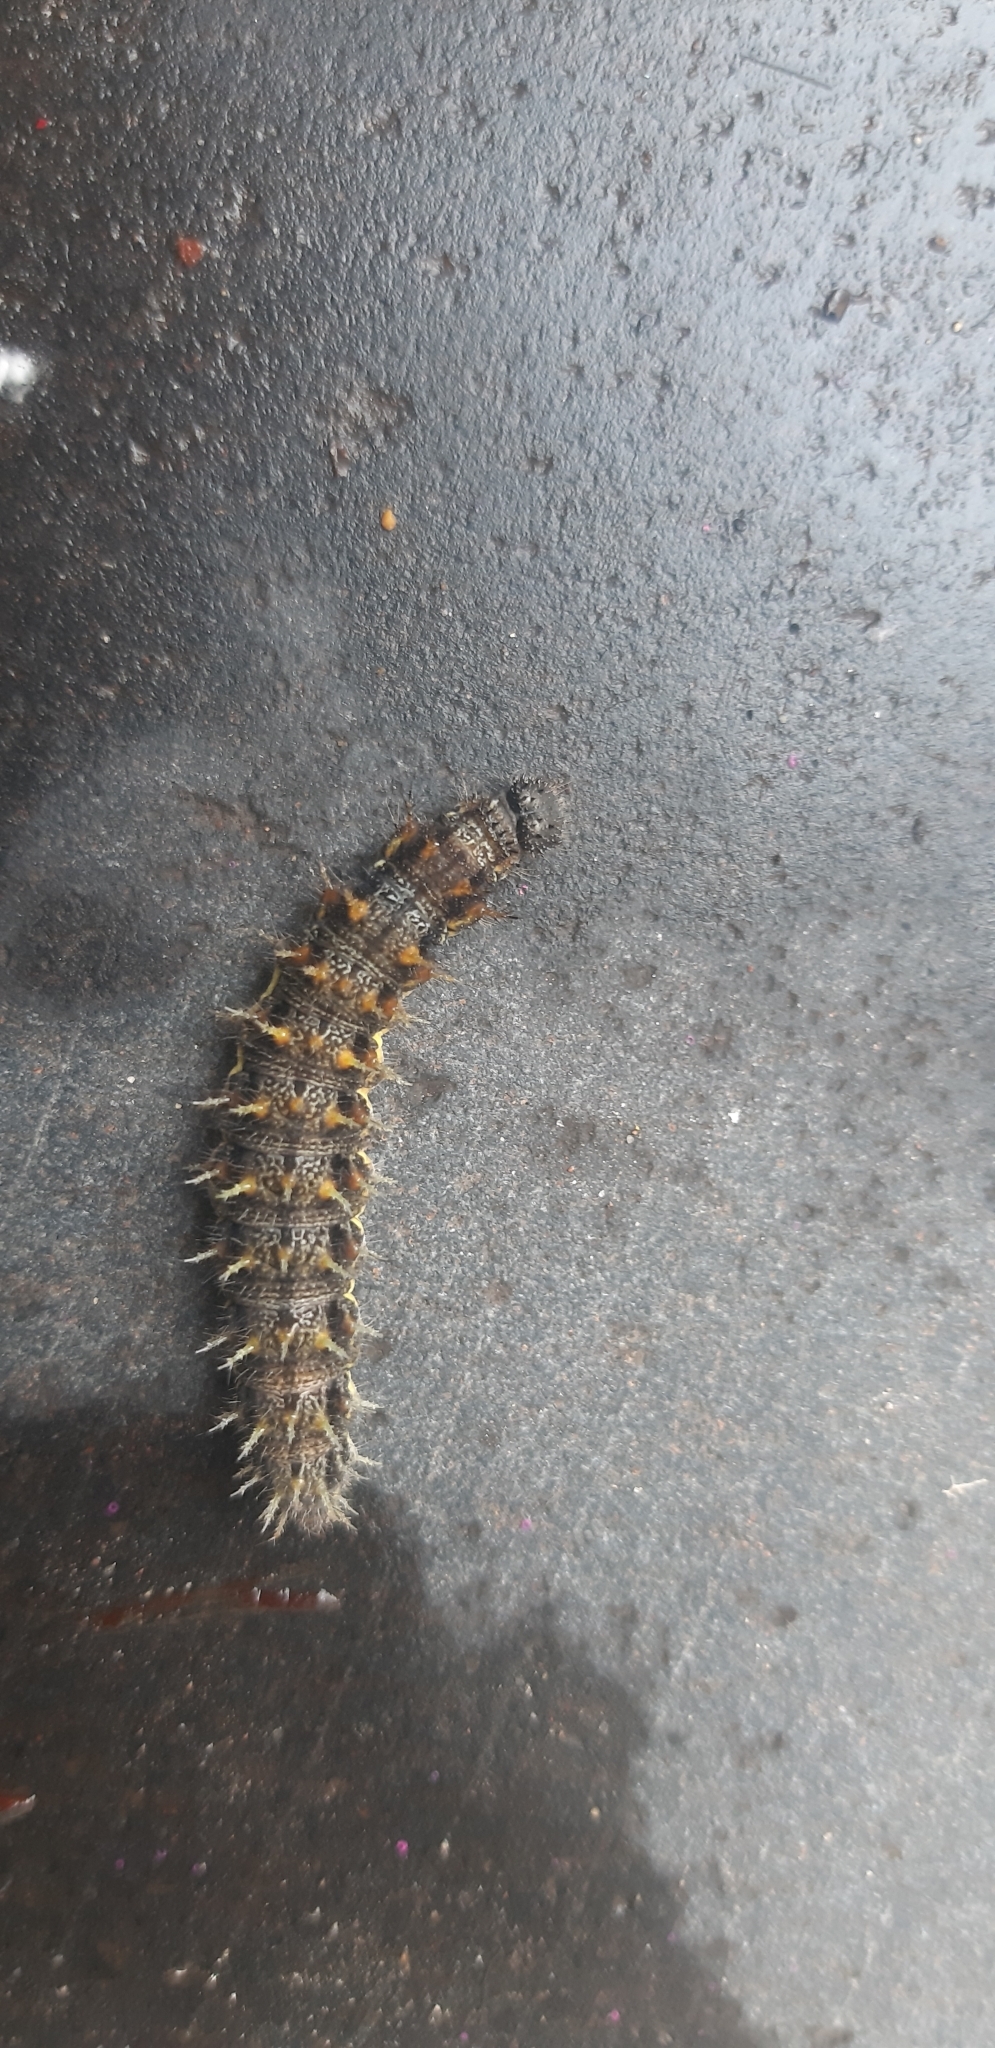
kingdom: Animalia
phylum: Arthropoda
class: Insecta
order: Lepidoptera
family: Nymphalidae
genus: Vanessa
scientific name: Vanessa atalanta
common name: Red admiral
